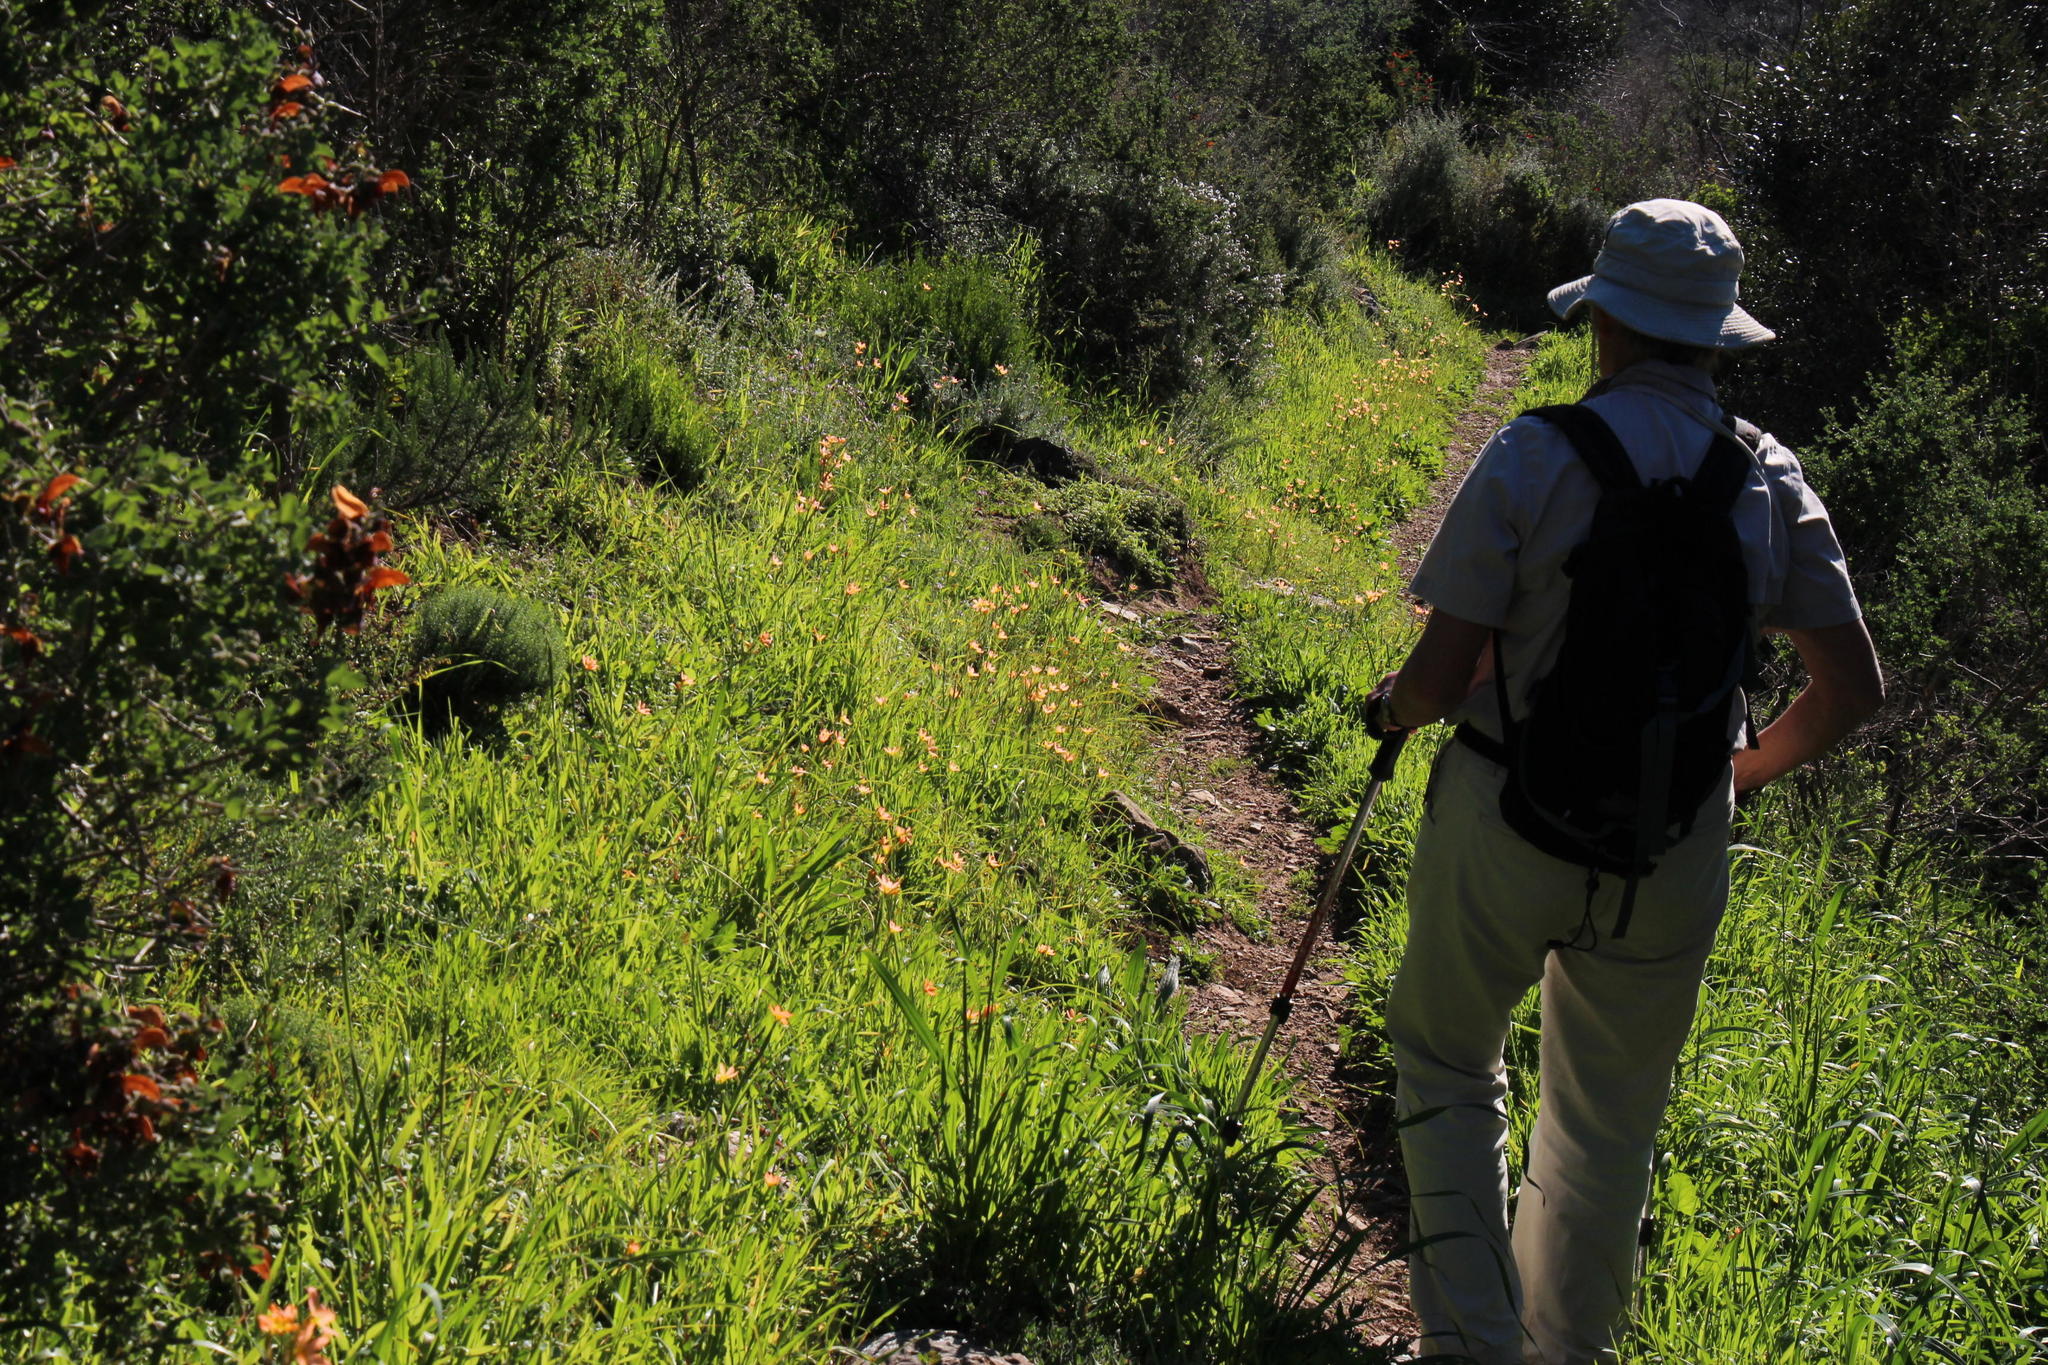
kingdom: Plantae
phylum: Tracheophyta
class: Liliopsida
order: Asparagales
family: Iridaceae
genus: Moraea
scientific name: Moraea miniata
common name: Two-leaf cape-tulip
